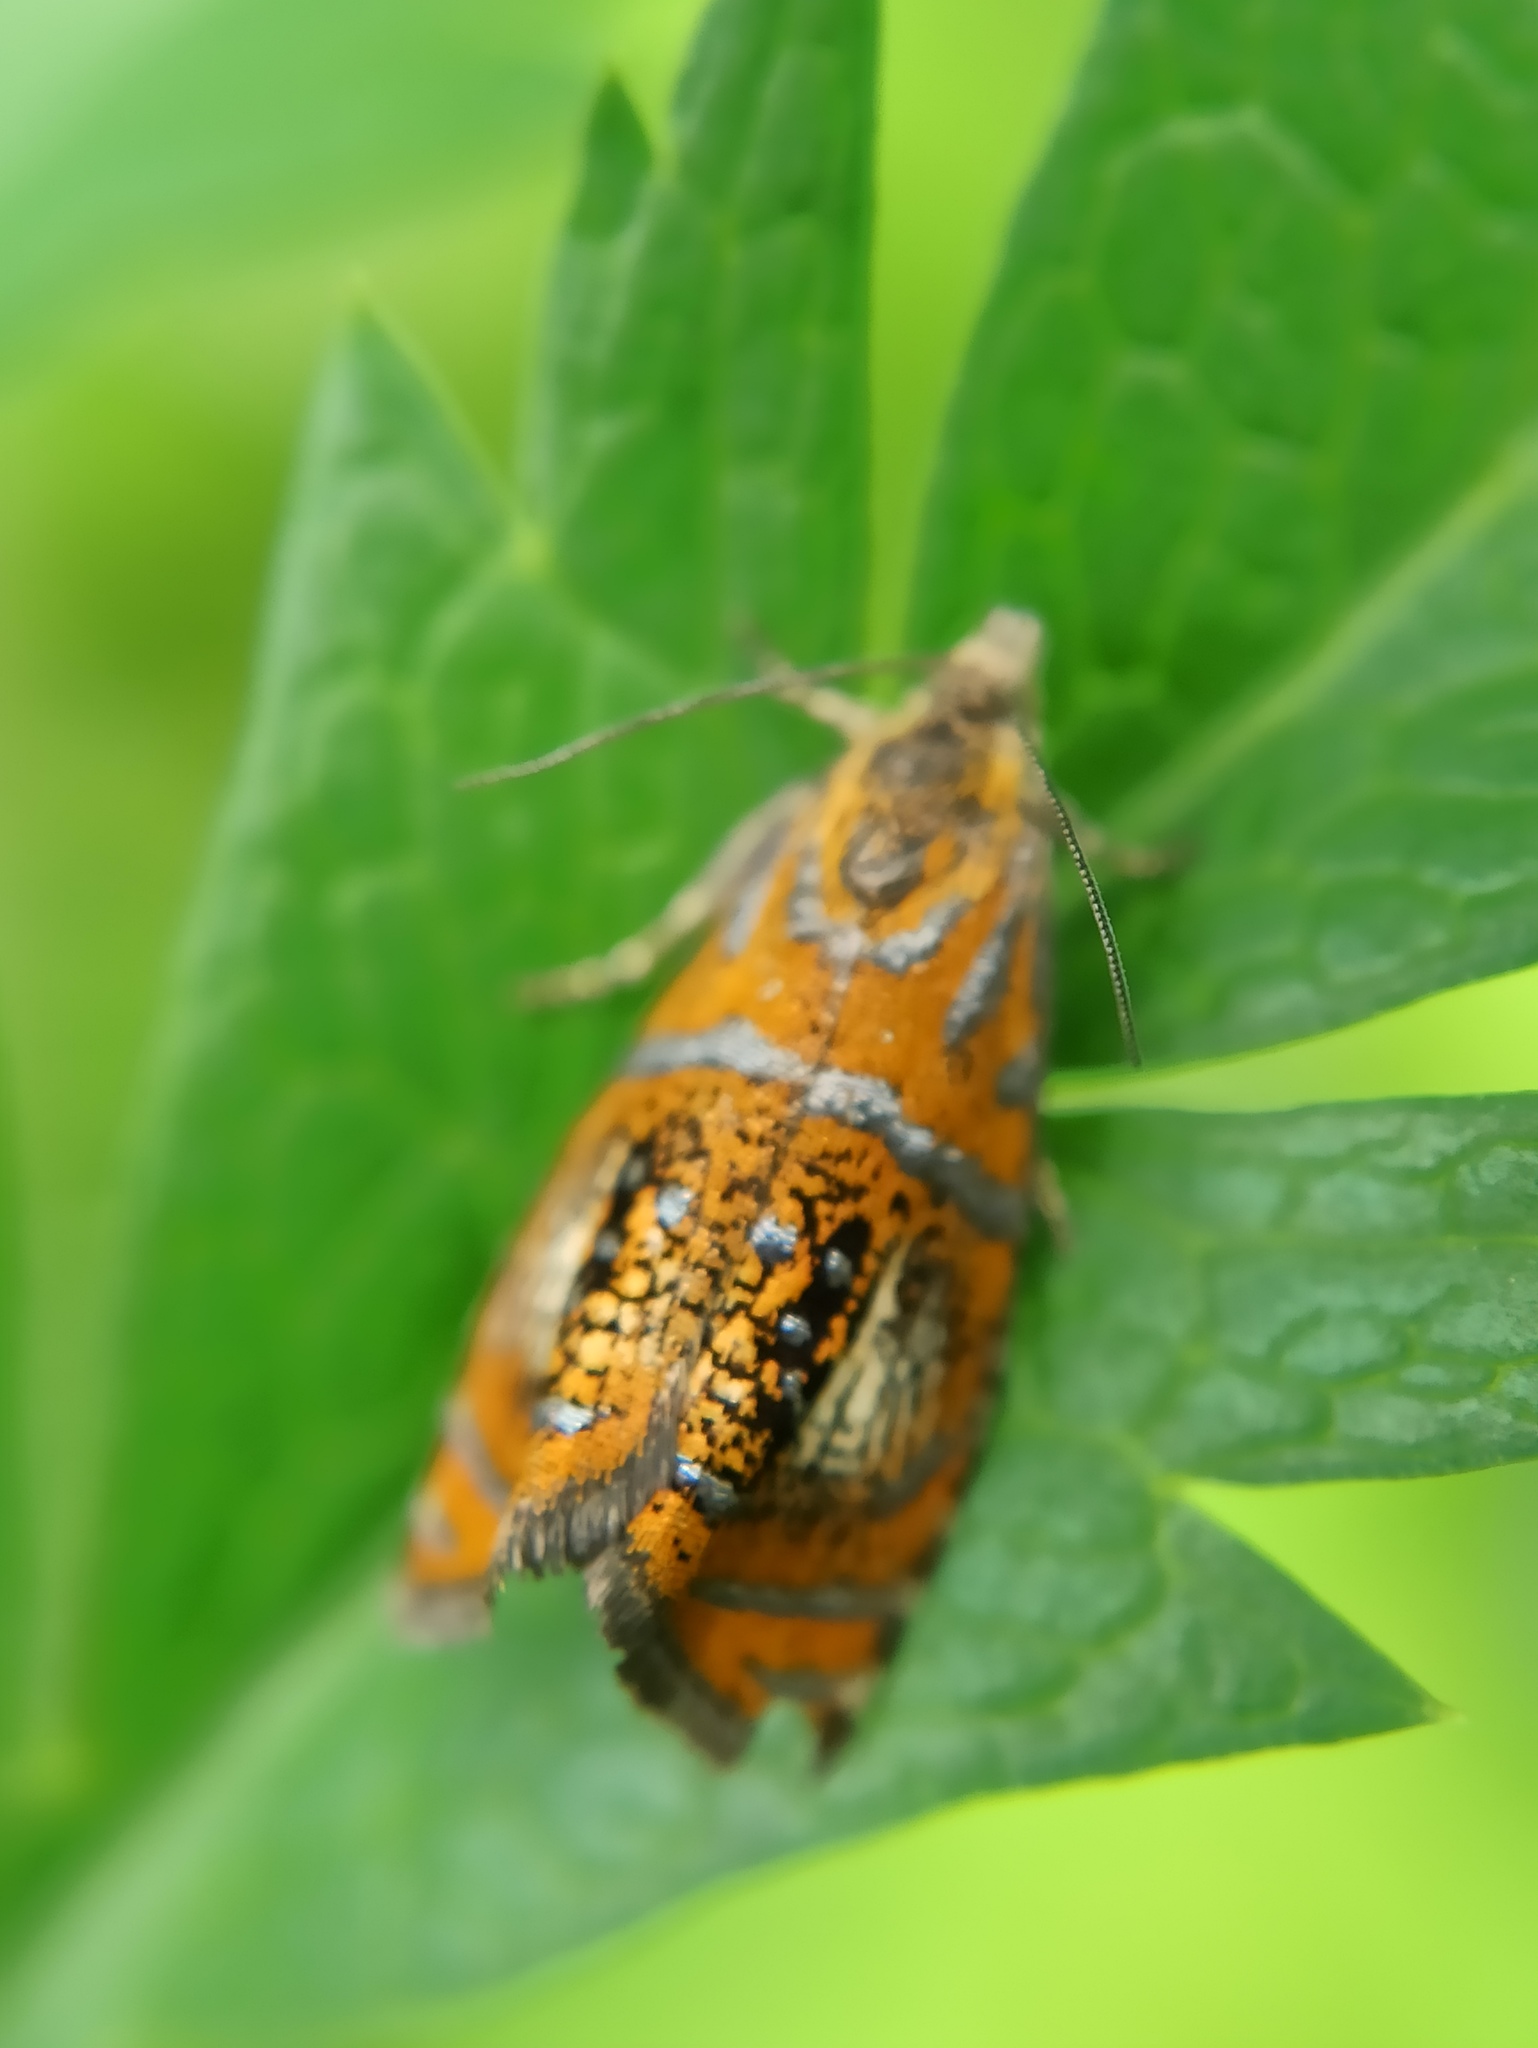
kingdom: Animalia
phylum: Arthropoda
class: Insecta
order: Lepidoptera
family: Tortricidae
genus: Olethreutes
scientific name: Olethreutes arcuella
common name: Arched marble
